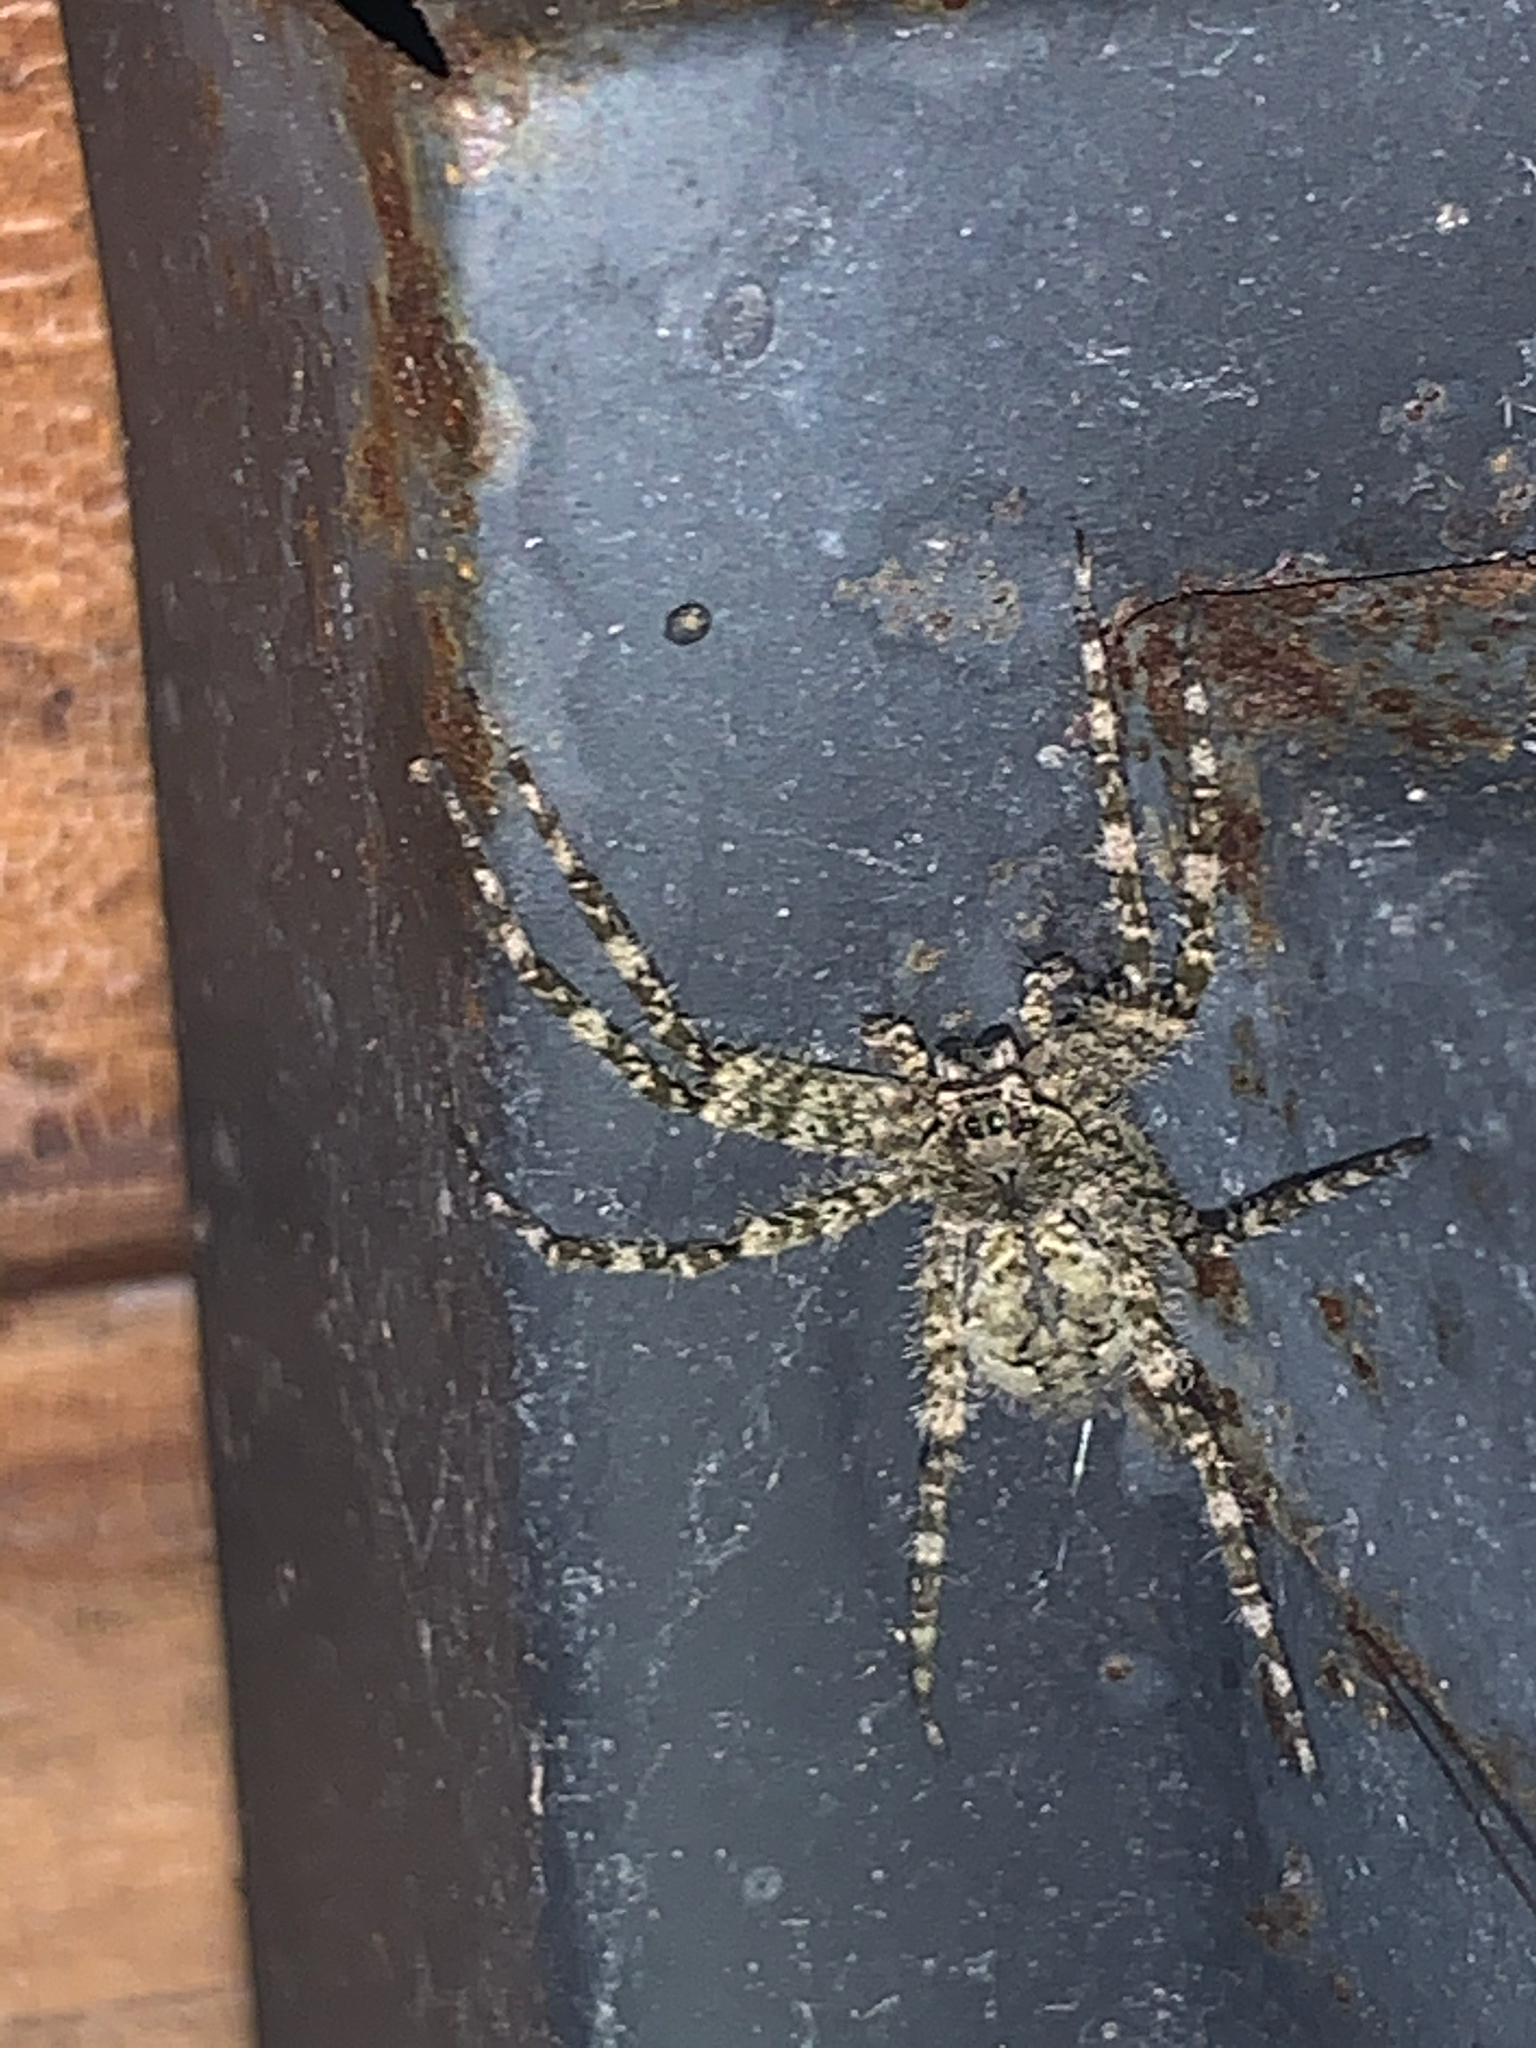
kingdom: Animalia
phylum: Arthropoda
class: Arachnida
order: Araneae
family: Pisauridae
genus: Dolomedes
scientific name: Dolomedes albineus
